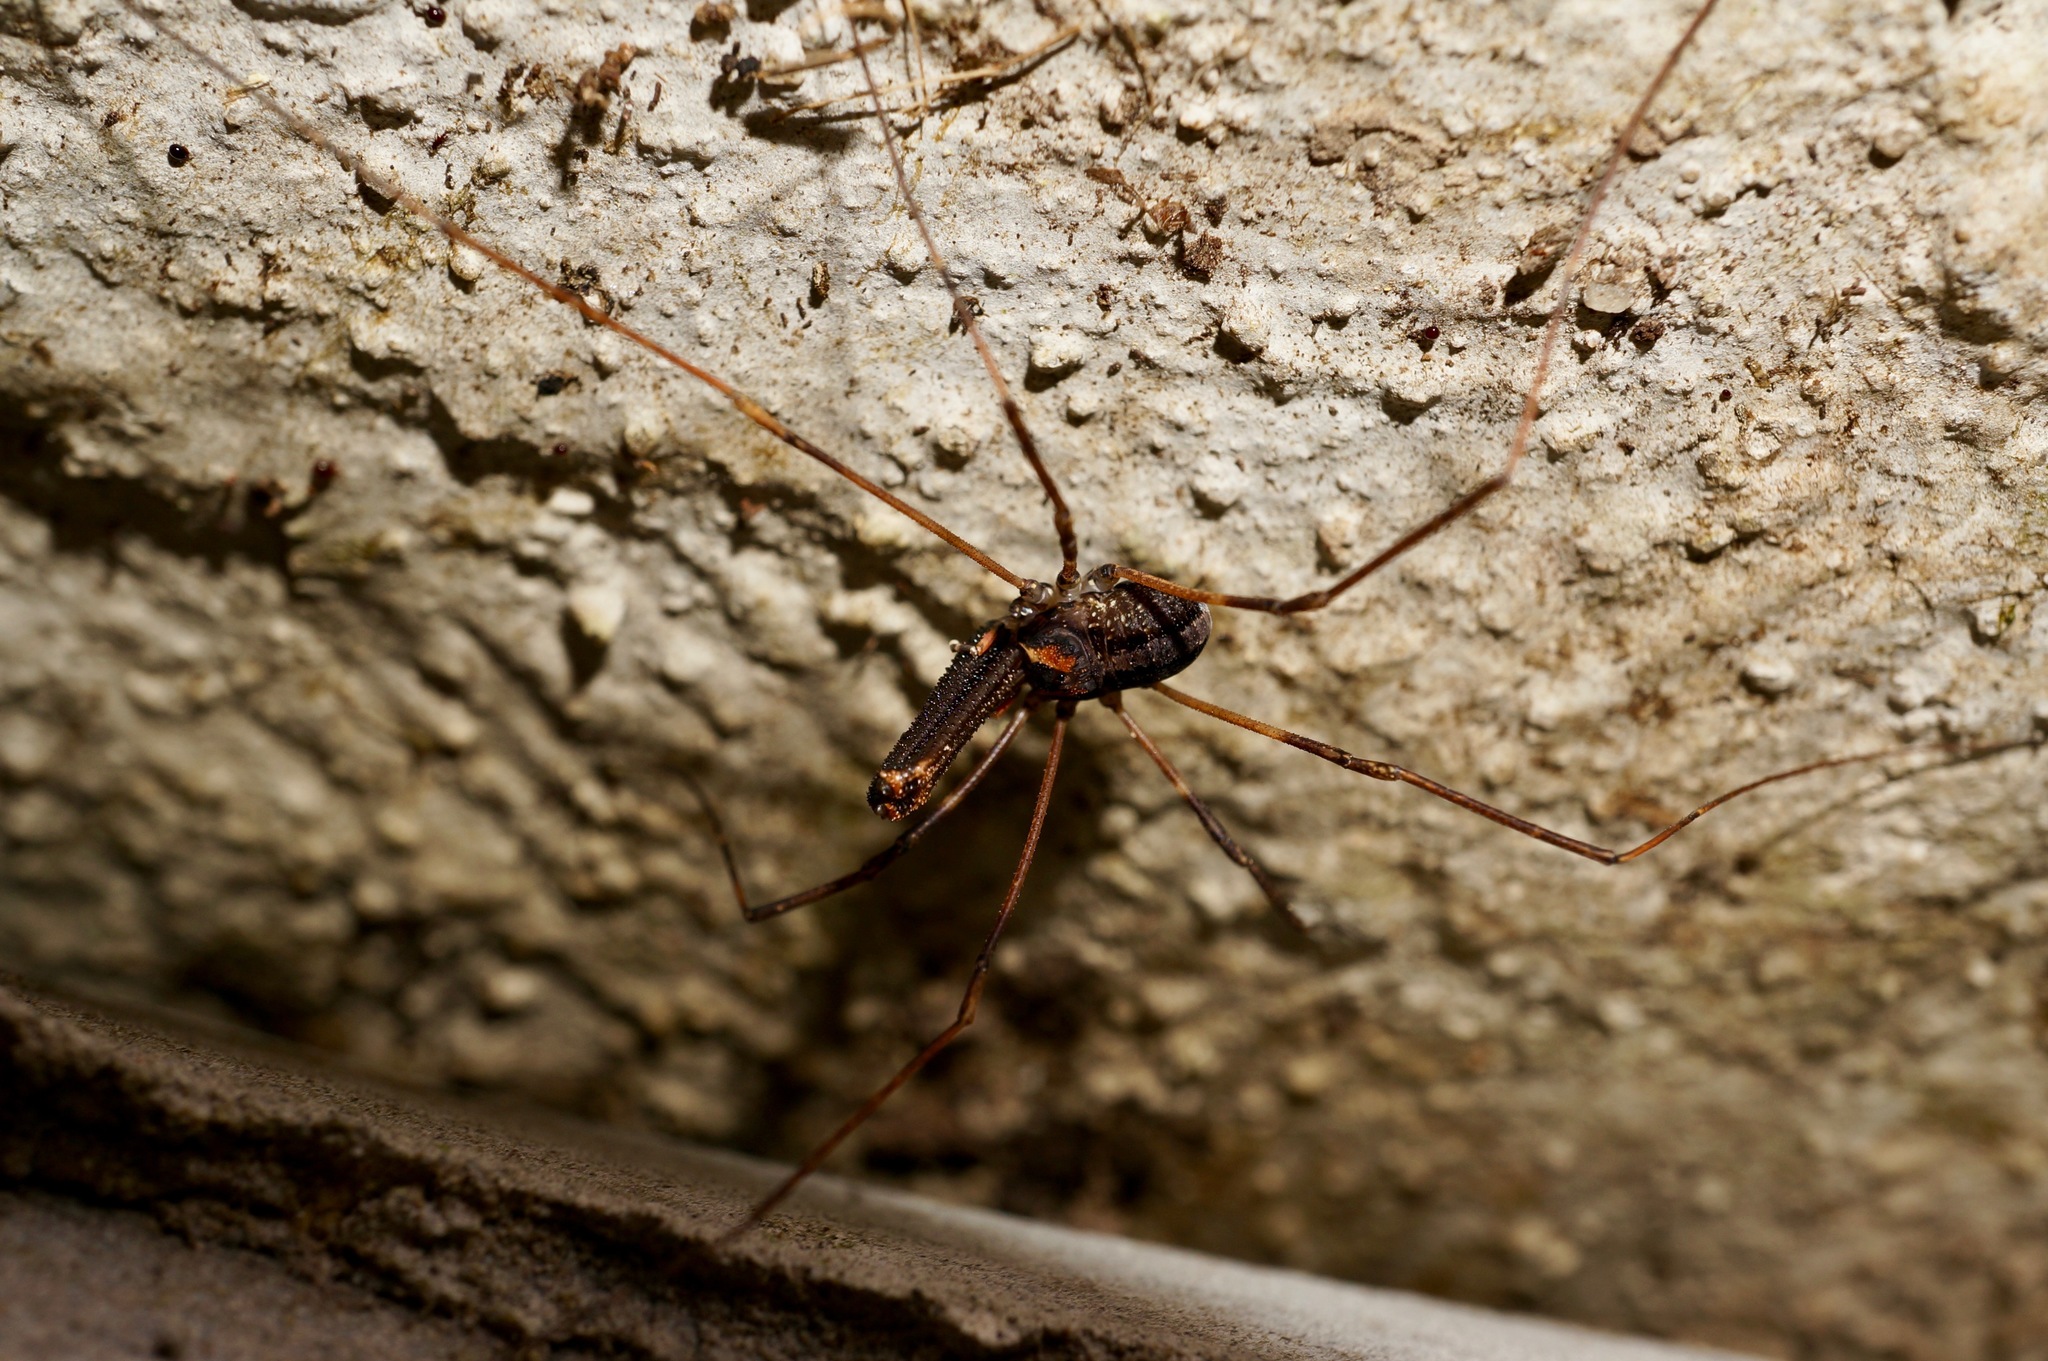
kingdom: Animalia
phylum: Arthropoda
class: Arachnida
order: Opiliones
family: Neopilionidae
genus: Forsteropsalis
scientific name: Forsteropsalis inconstans
